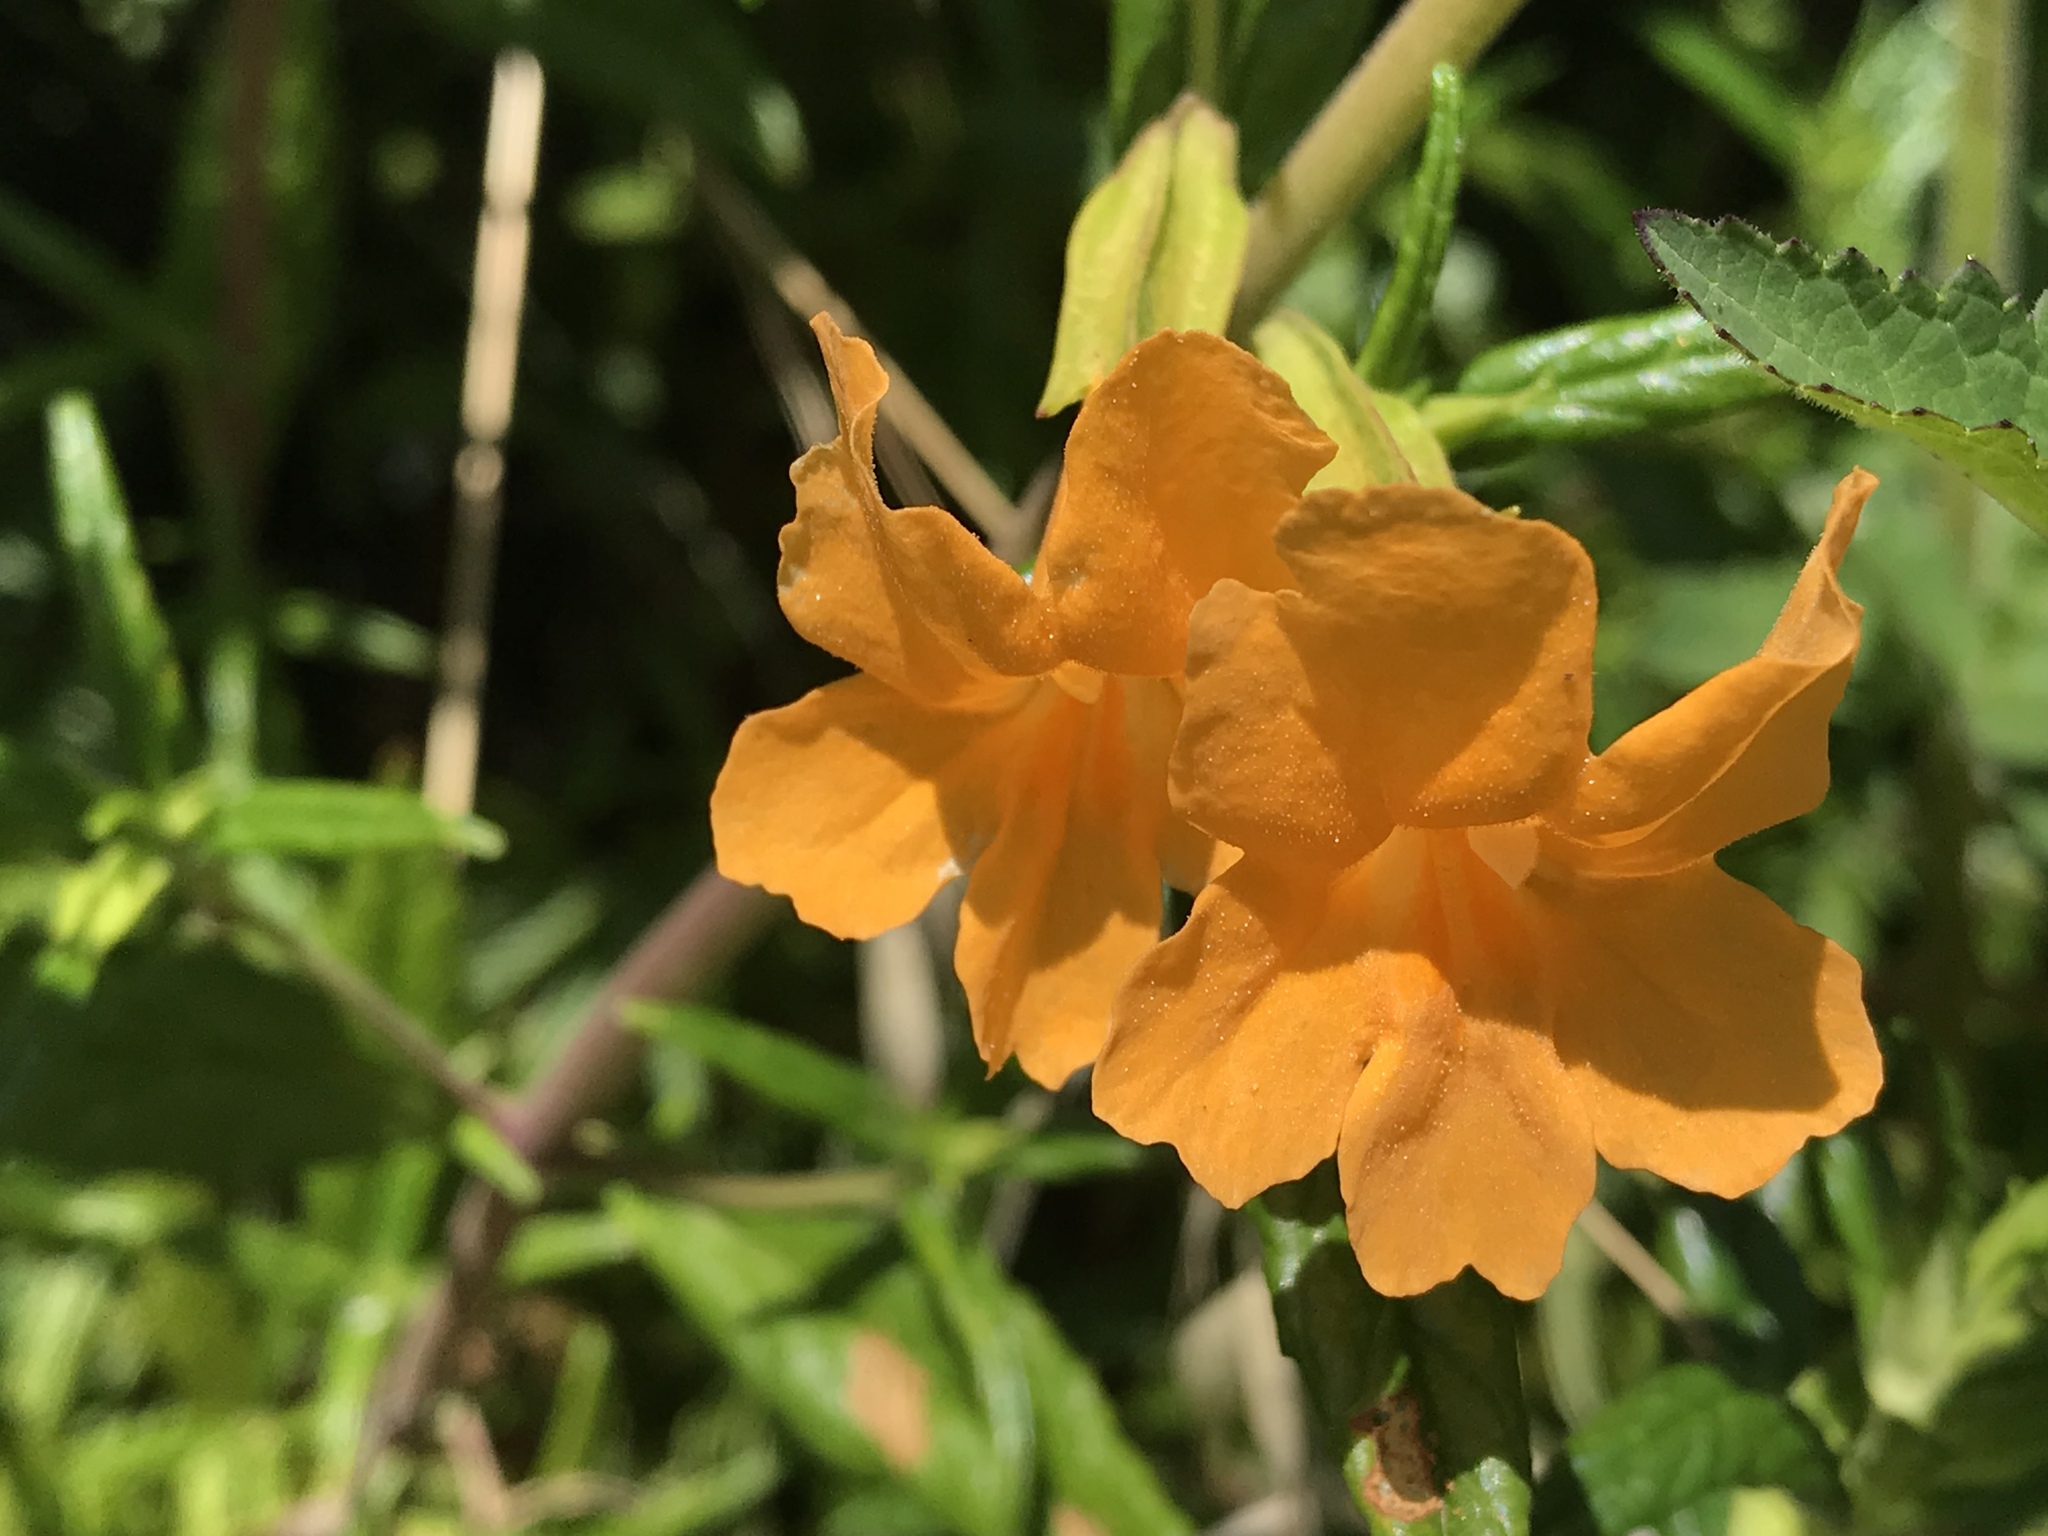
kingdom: Plantae
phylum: Tracheophyta
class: Magnoliopsida
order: Lamiales
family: Phrymaceae
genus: Diplacus
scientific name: Diplacus aurantiacus
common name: Bush monkey-flower
